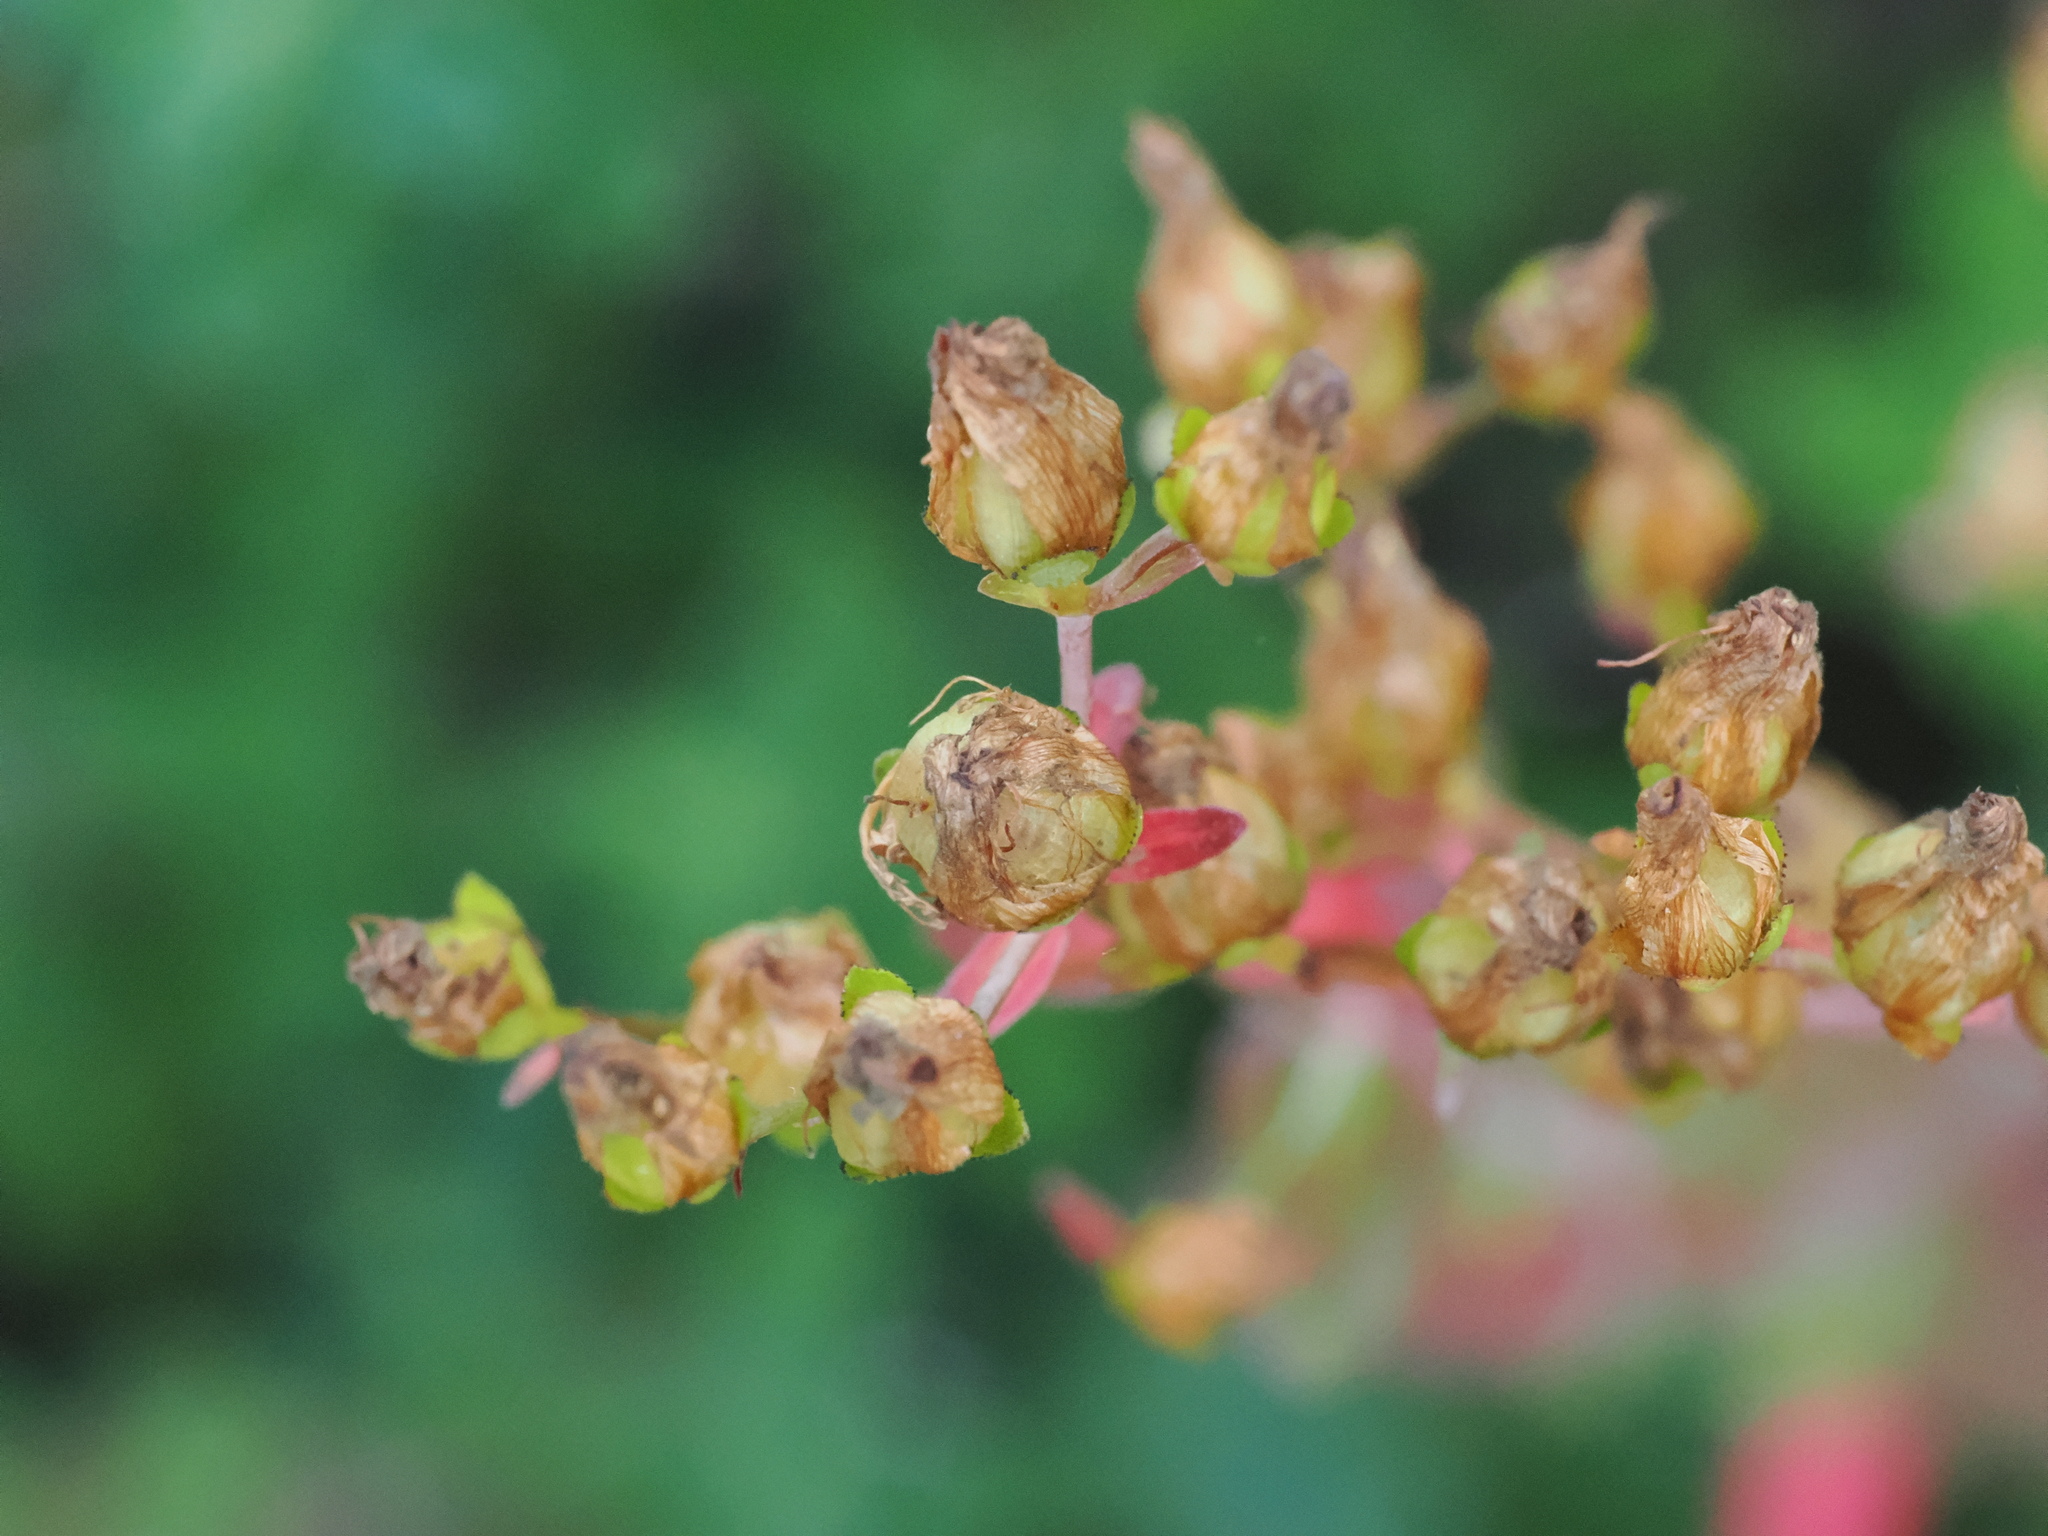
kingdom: Plantae
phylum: Tracheophyta
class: Magnoliopsida
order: Malpighiales
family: Hypericaceae
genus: Hypericum
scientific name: Hypericum pulchrum
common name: Slender st. john's-wort
